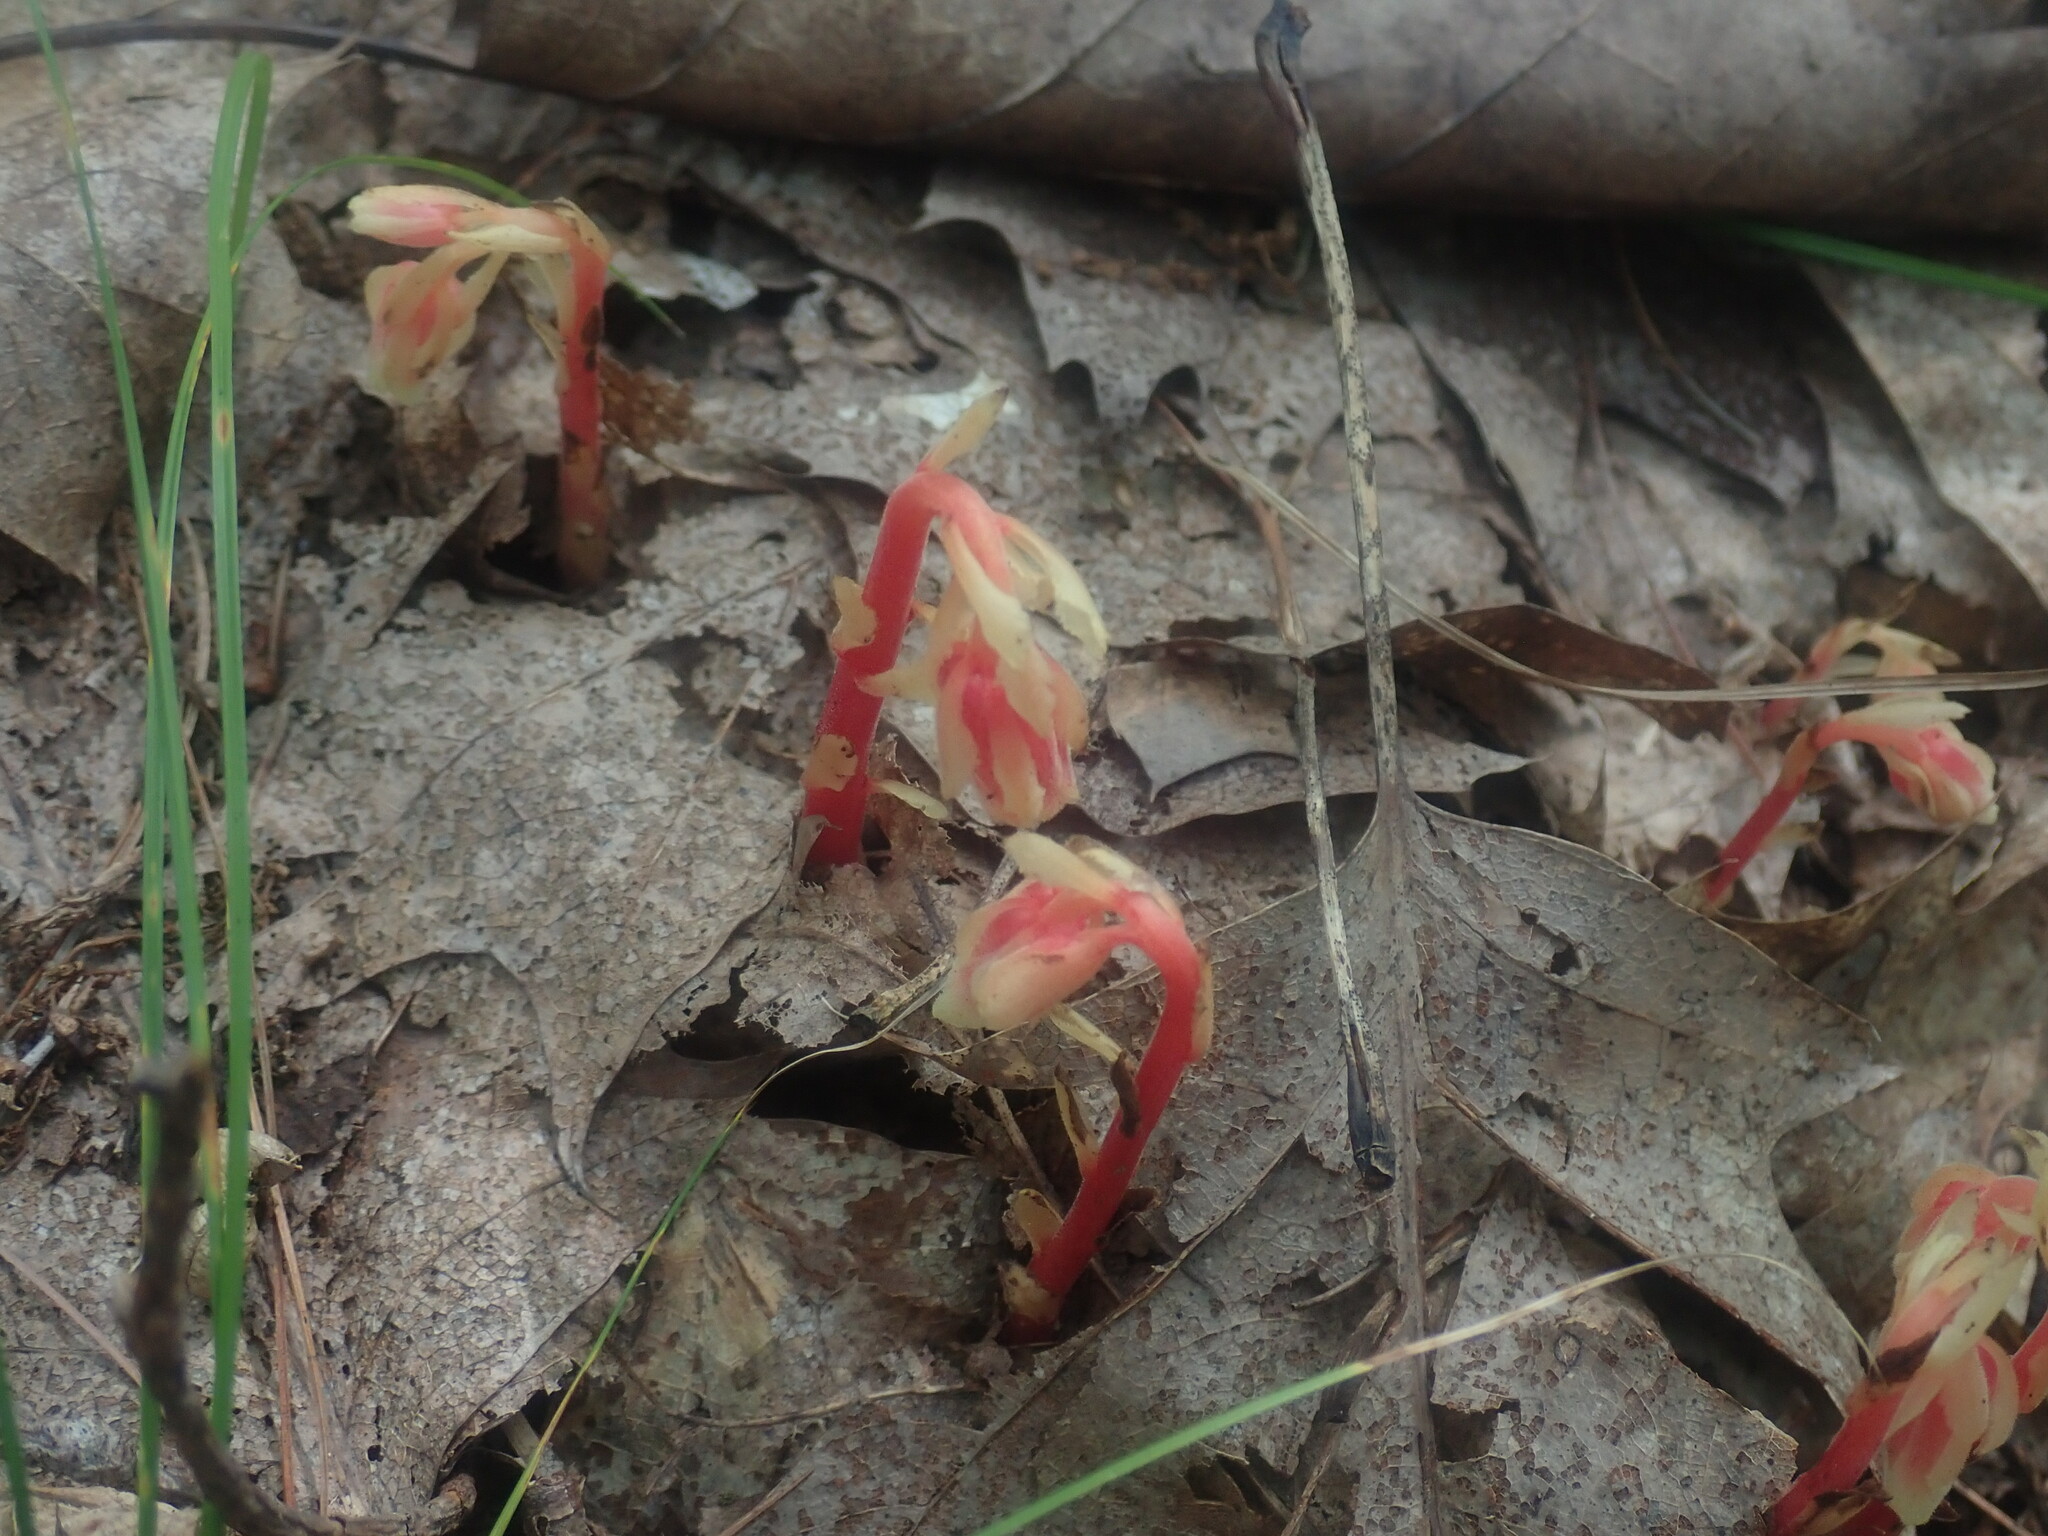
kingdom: Plantae
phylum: Tracheophyta
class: Magnoliopsida
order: Ericales
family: Ericaceae
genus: Hypopitys
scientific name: Hypopitys monotropa
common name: Yellow bird's-nest
